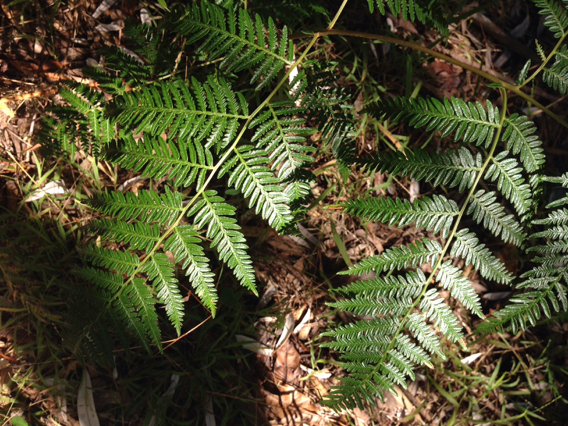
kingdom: Plantae
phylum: Tracheophyta
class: Polypodiopsida
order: Polypodiales
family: Dennstaedtiaceae
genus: Pteridium
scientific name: Pteridium esculentum
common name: Bracken fern
